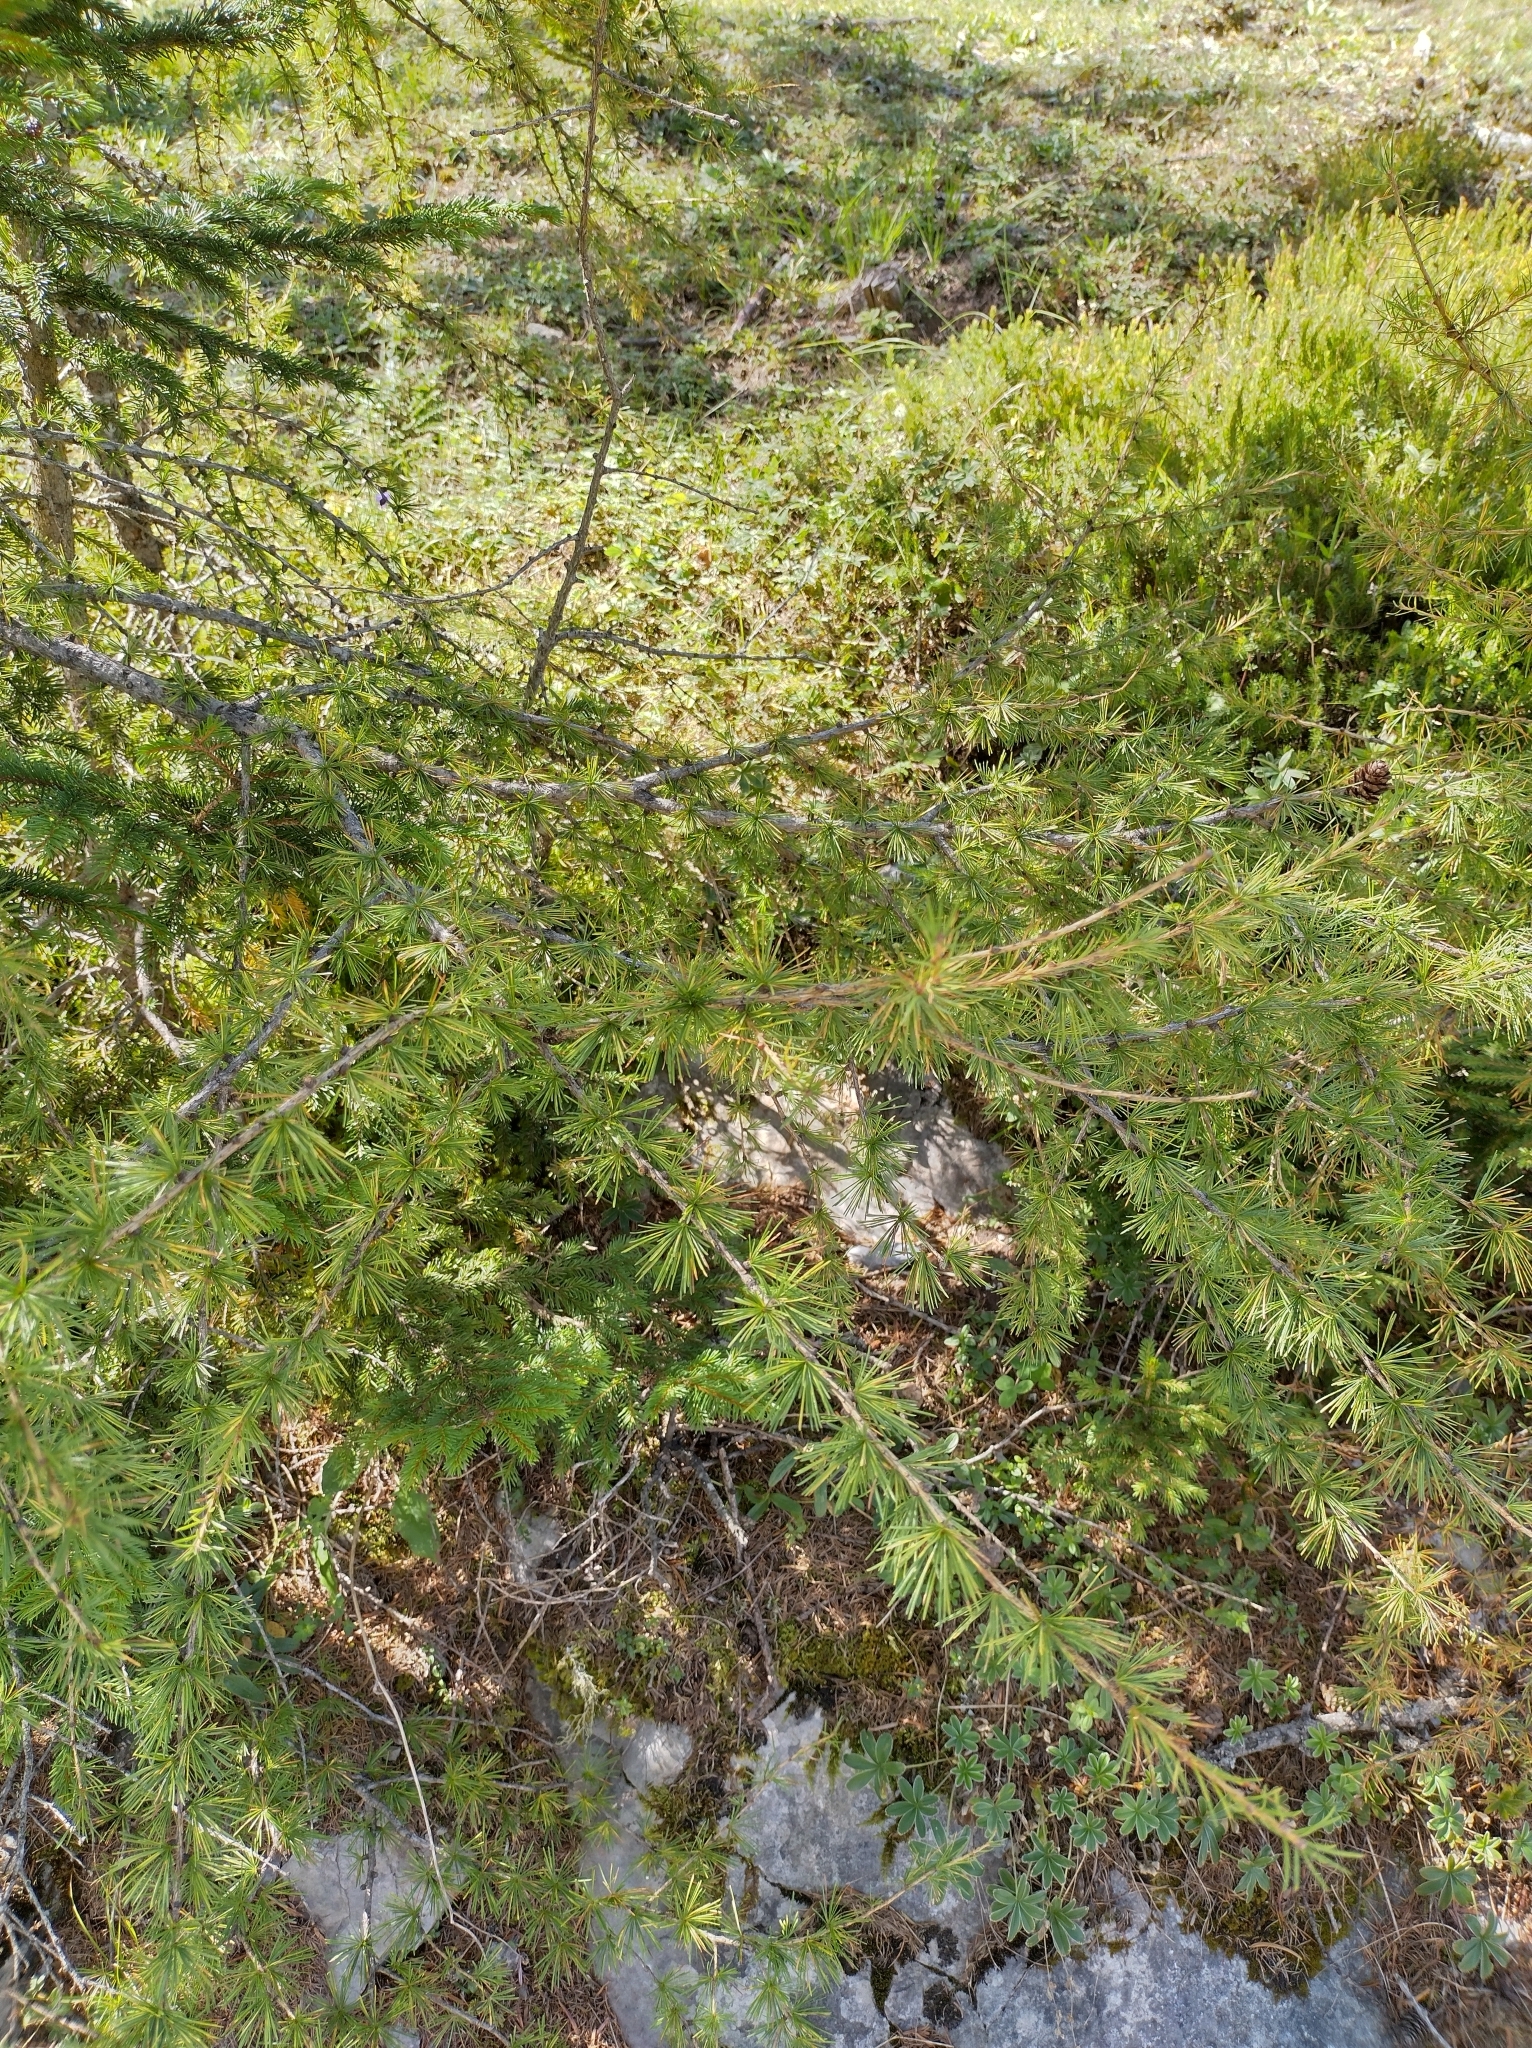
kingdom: Plantae
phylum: Tracheophyta
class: Pinopsida
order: Pinales
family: Pinaceae
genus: Larix
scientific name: Larix decidua
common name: European larch
